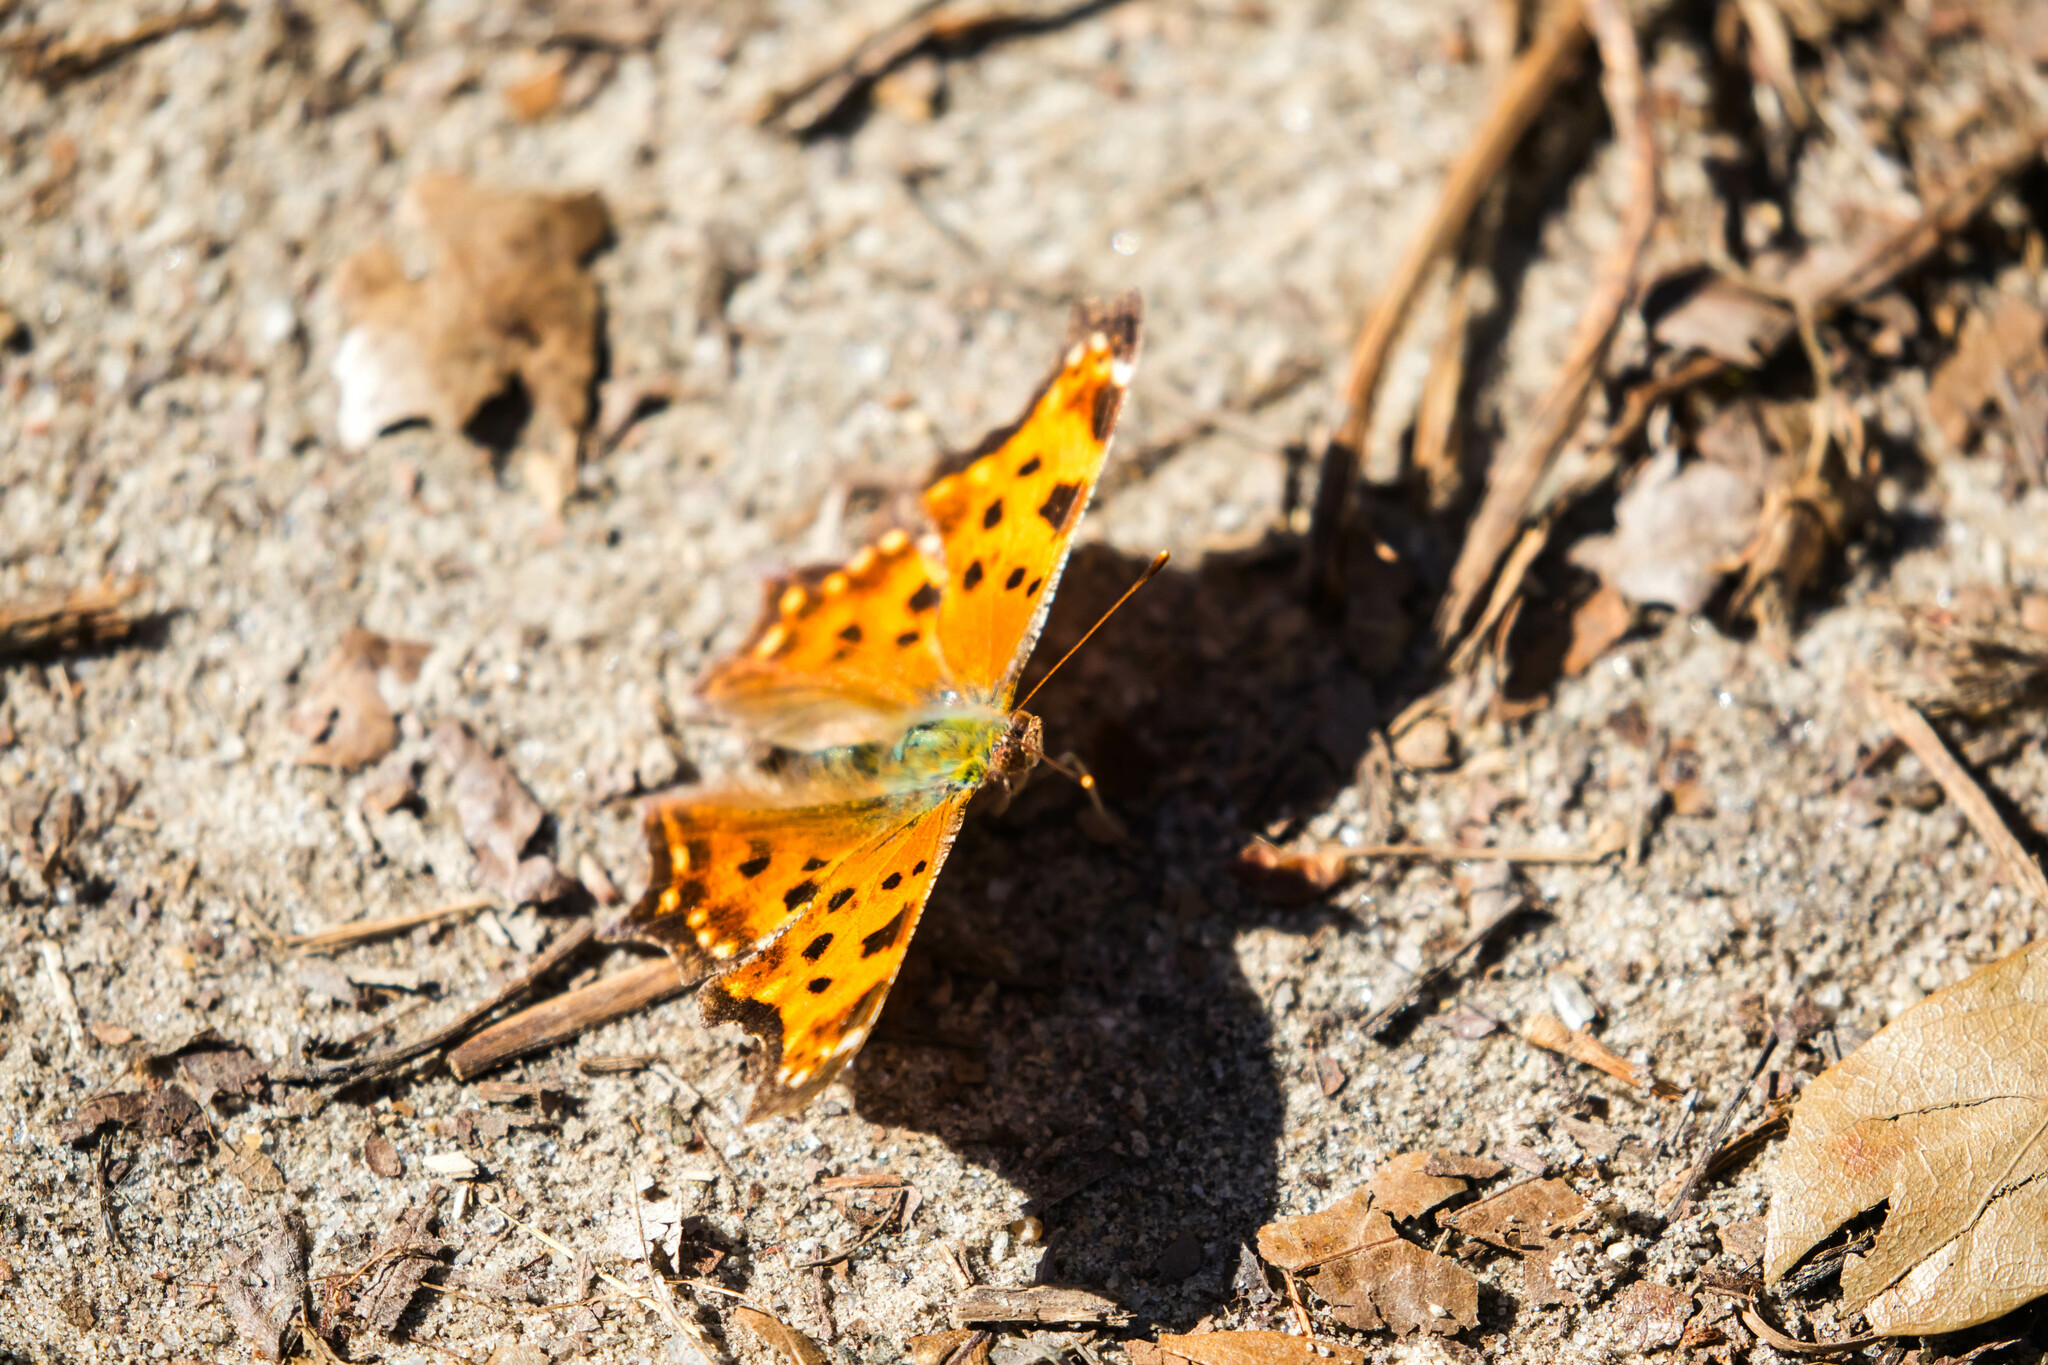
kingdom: Animalia
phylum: Arthropoda
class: Insecta
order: Lepidoptera
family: Nymphalidae
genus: Polygonia
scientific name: Polygonia comma
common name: Eastern comma
